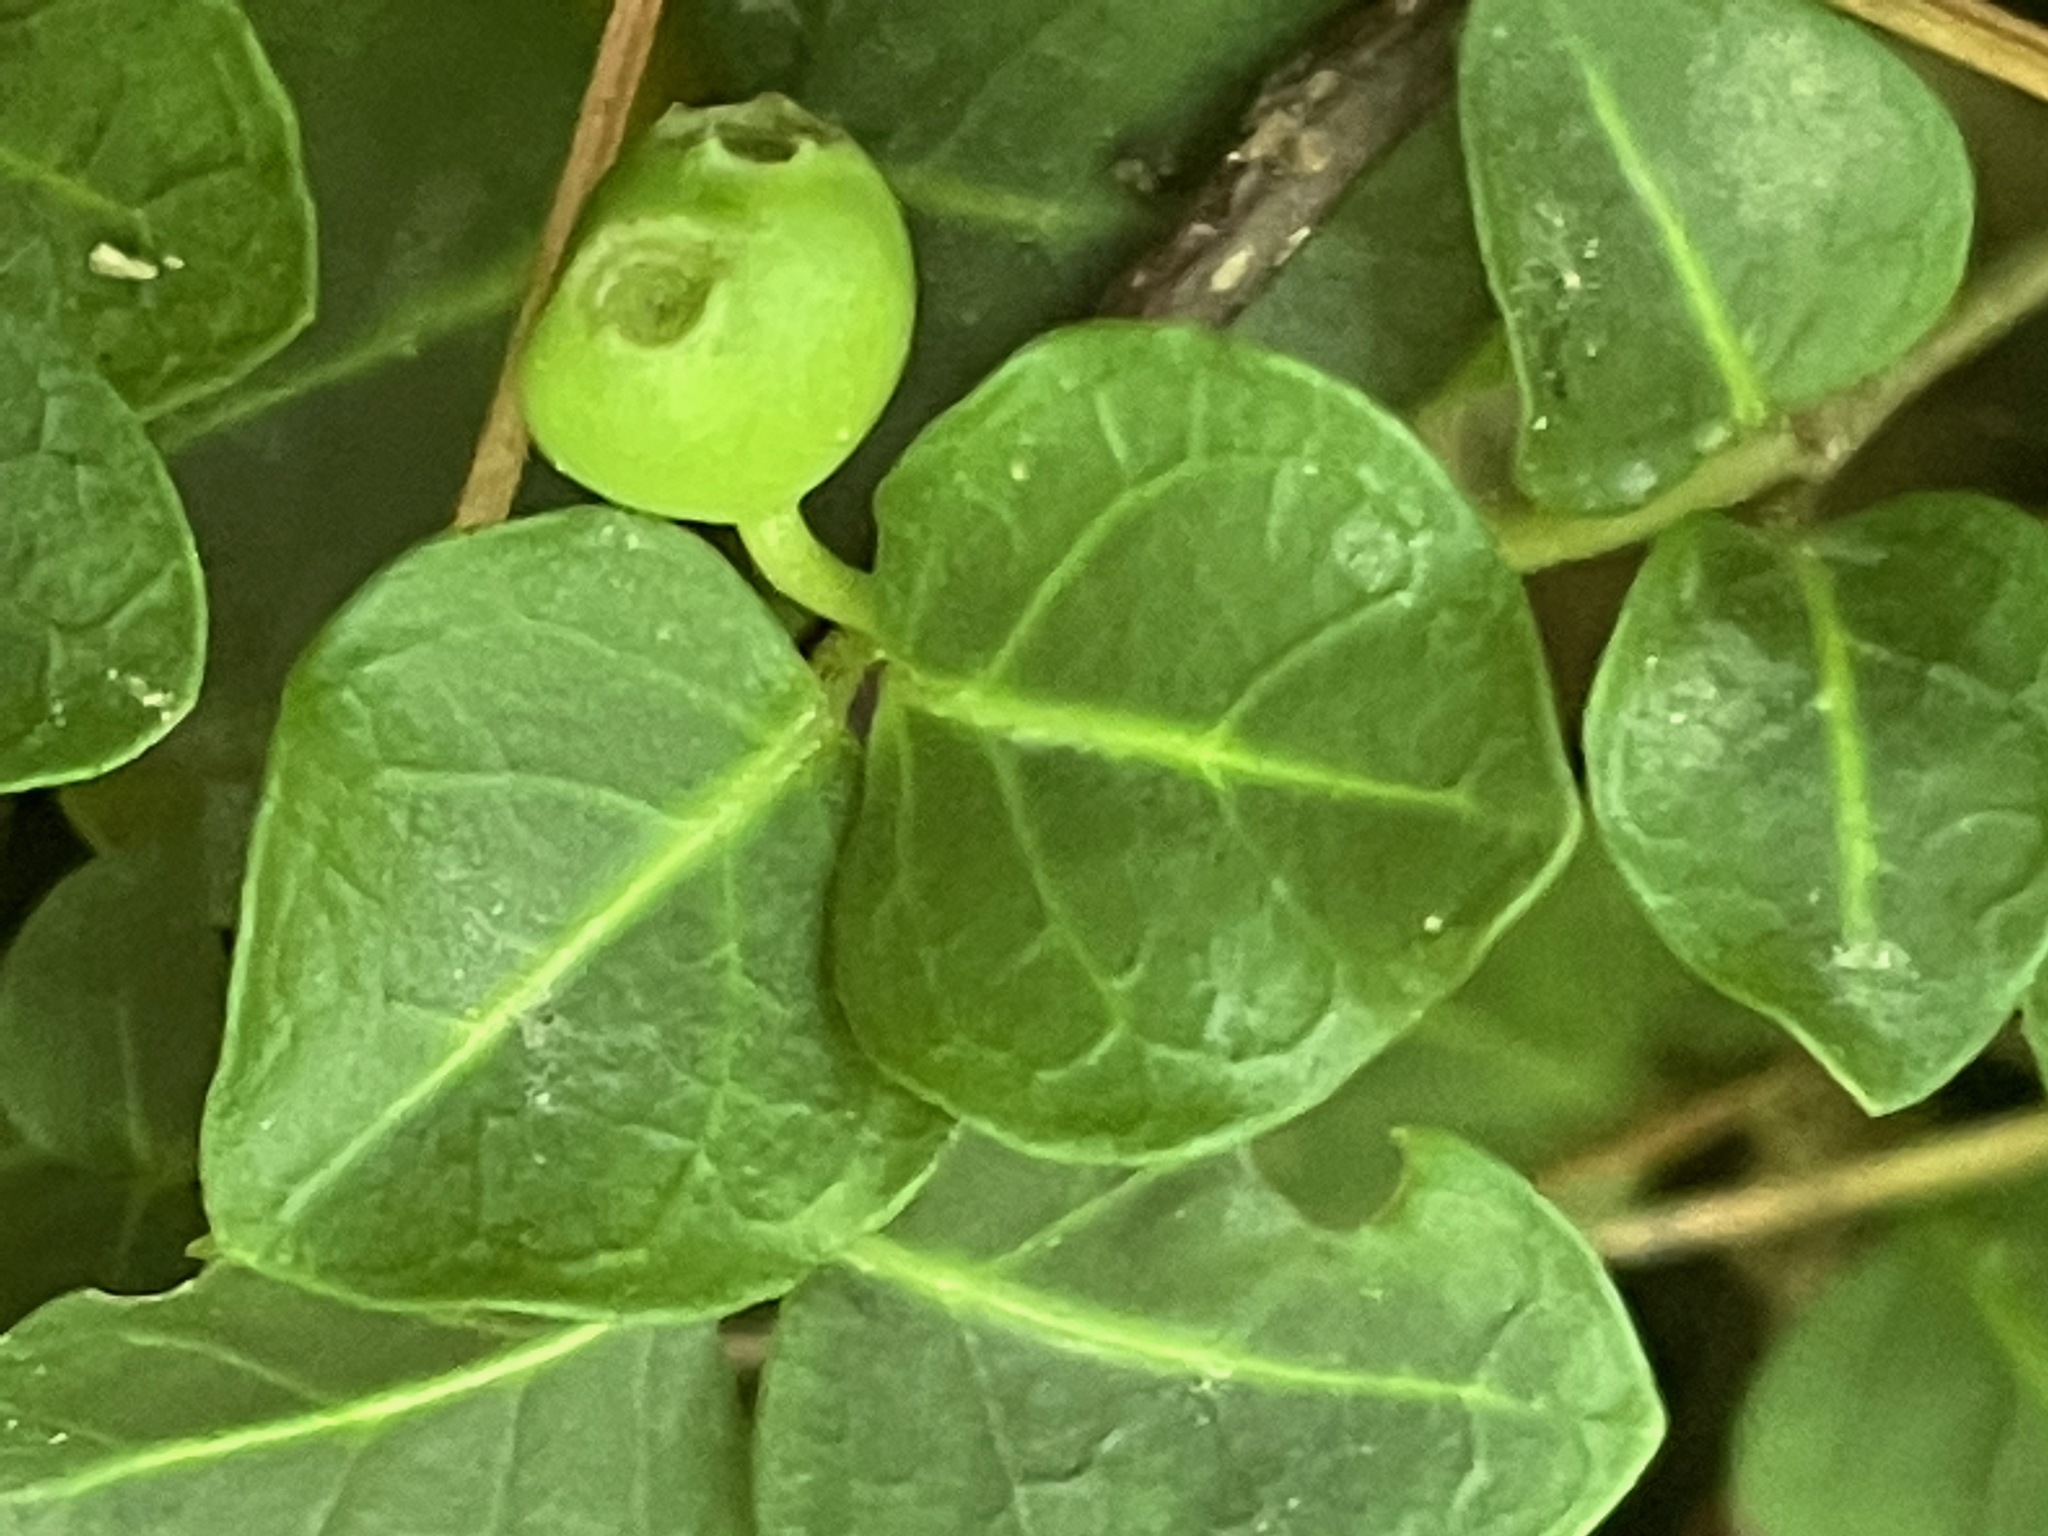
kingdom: Plantae
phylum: Tracheophyta
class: Magnoliopsida
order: Gentianales
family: Rubiaceae
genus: Mitchella
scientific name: Mitchella repens
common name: Partridge-berry
